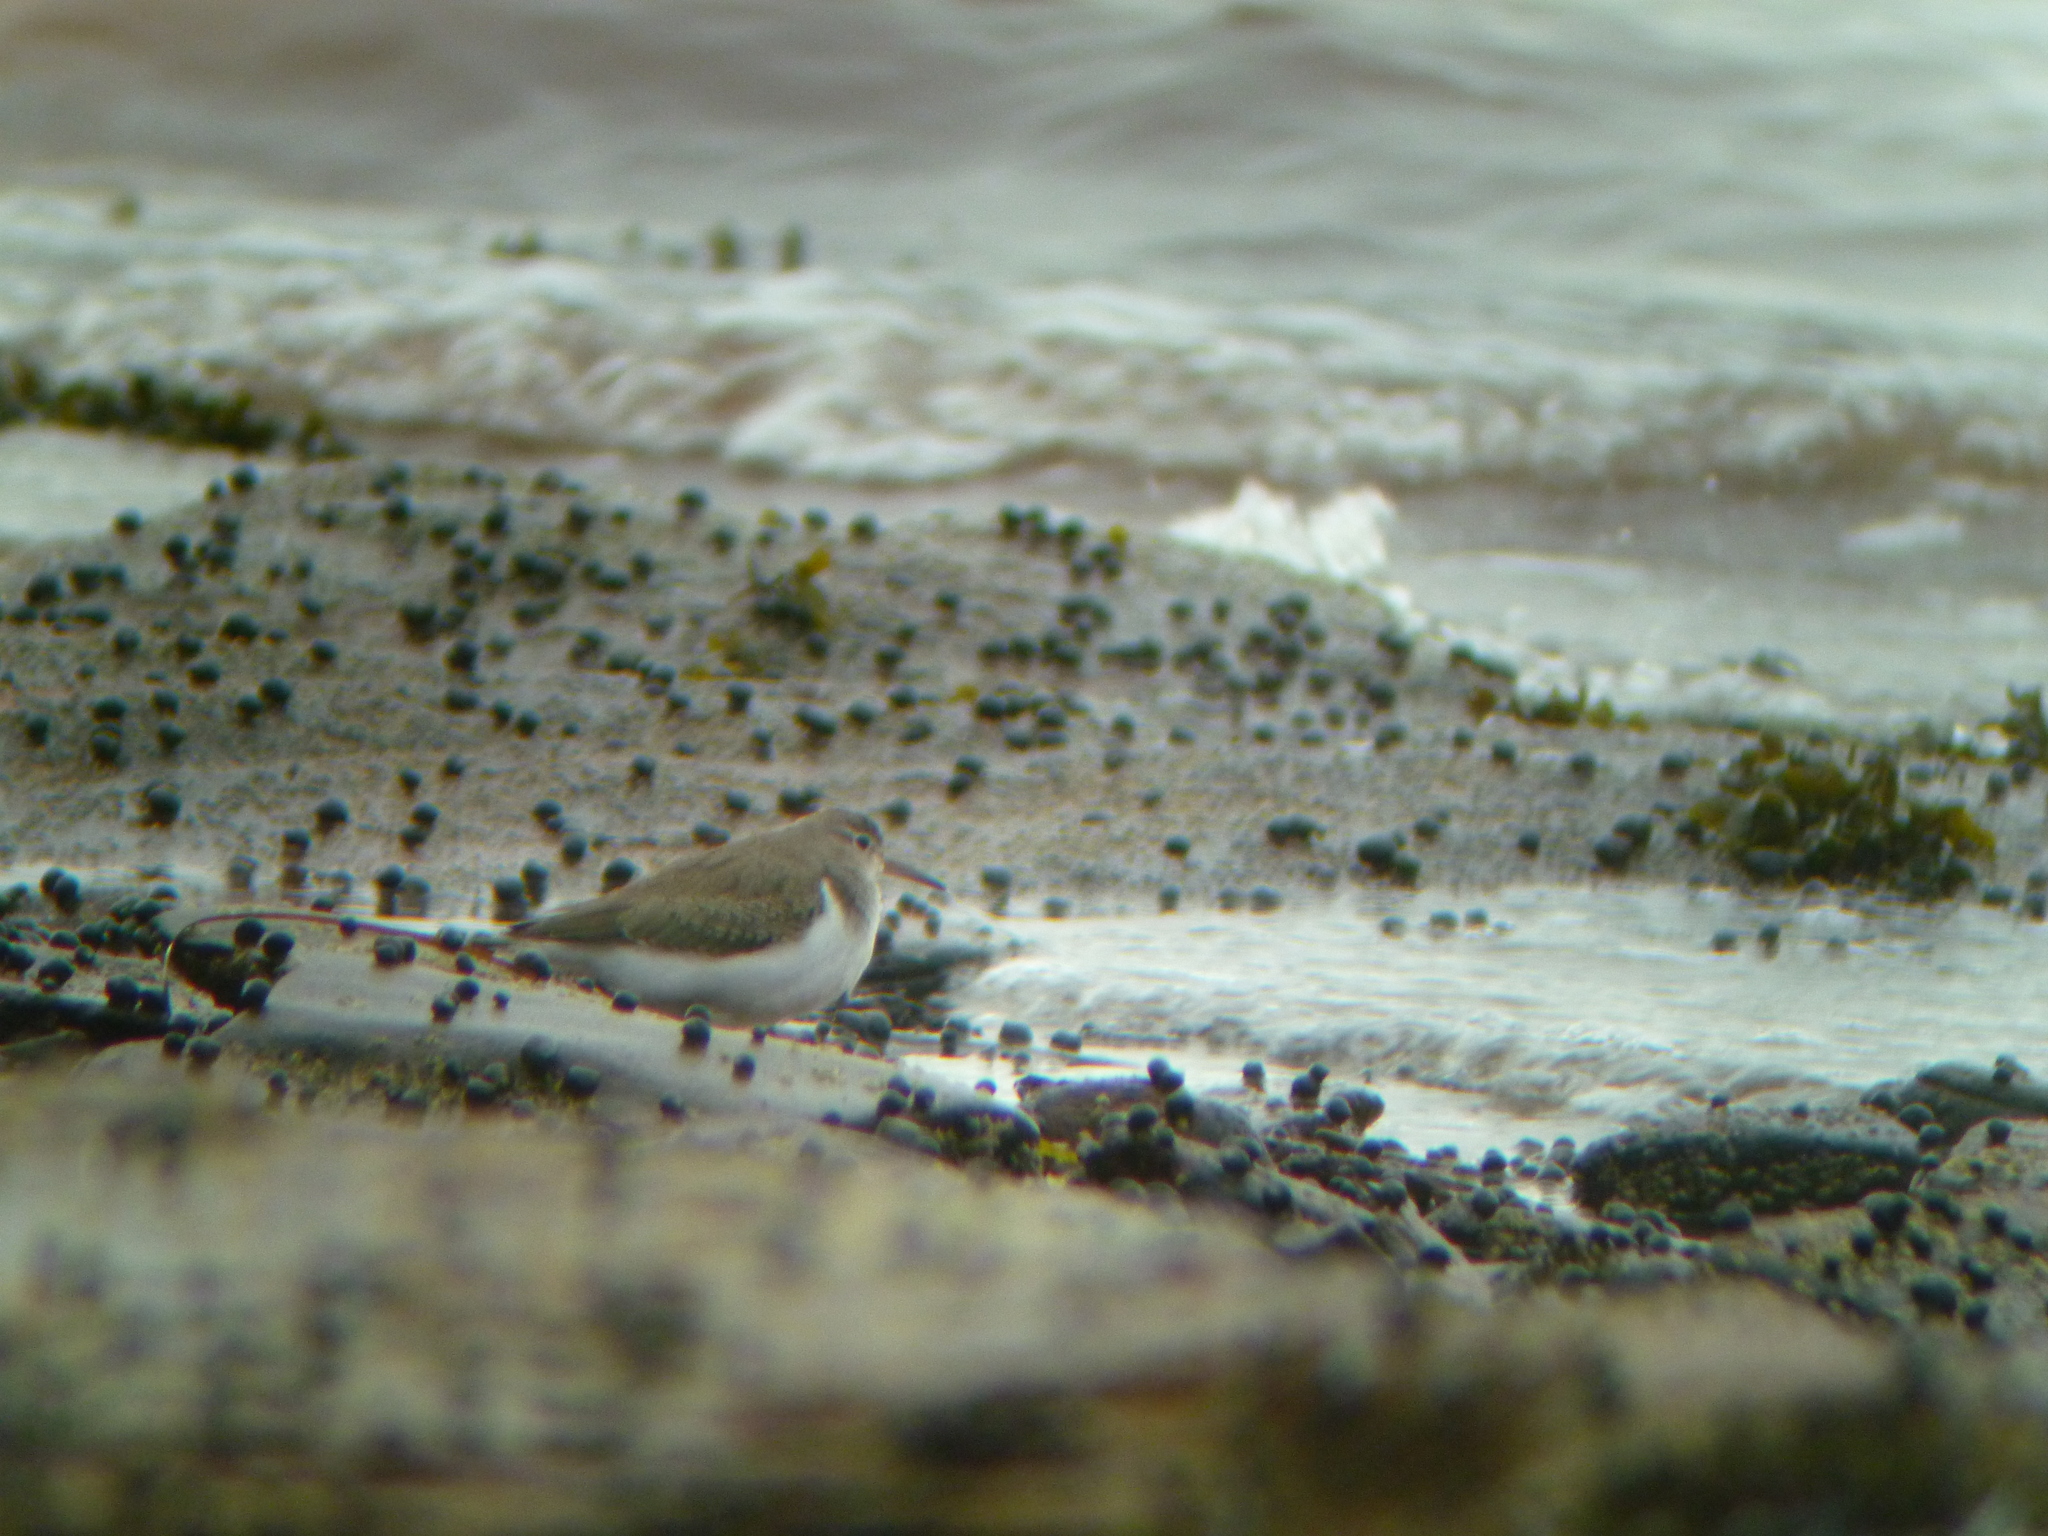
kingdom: Animalia
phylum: Chordata
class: Aves
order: Charadriiformes
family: Scolopacidae
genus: Actitis
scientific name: Actitis macularius
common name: Spotted sandpiper
